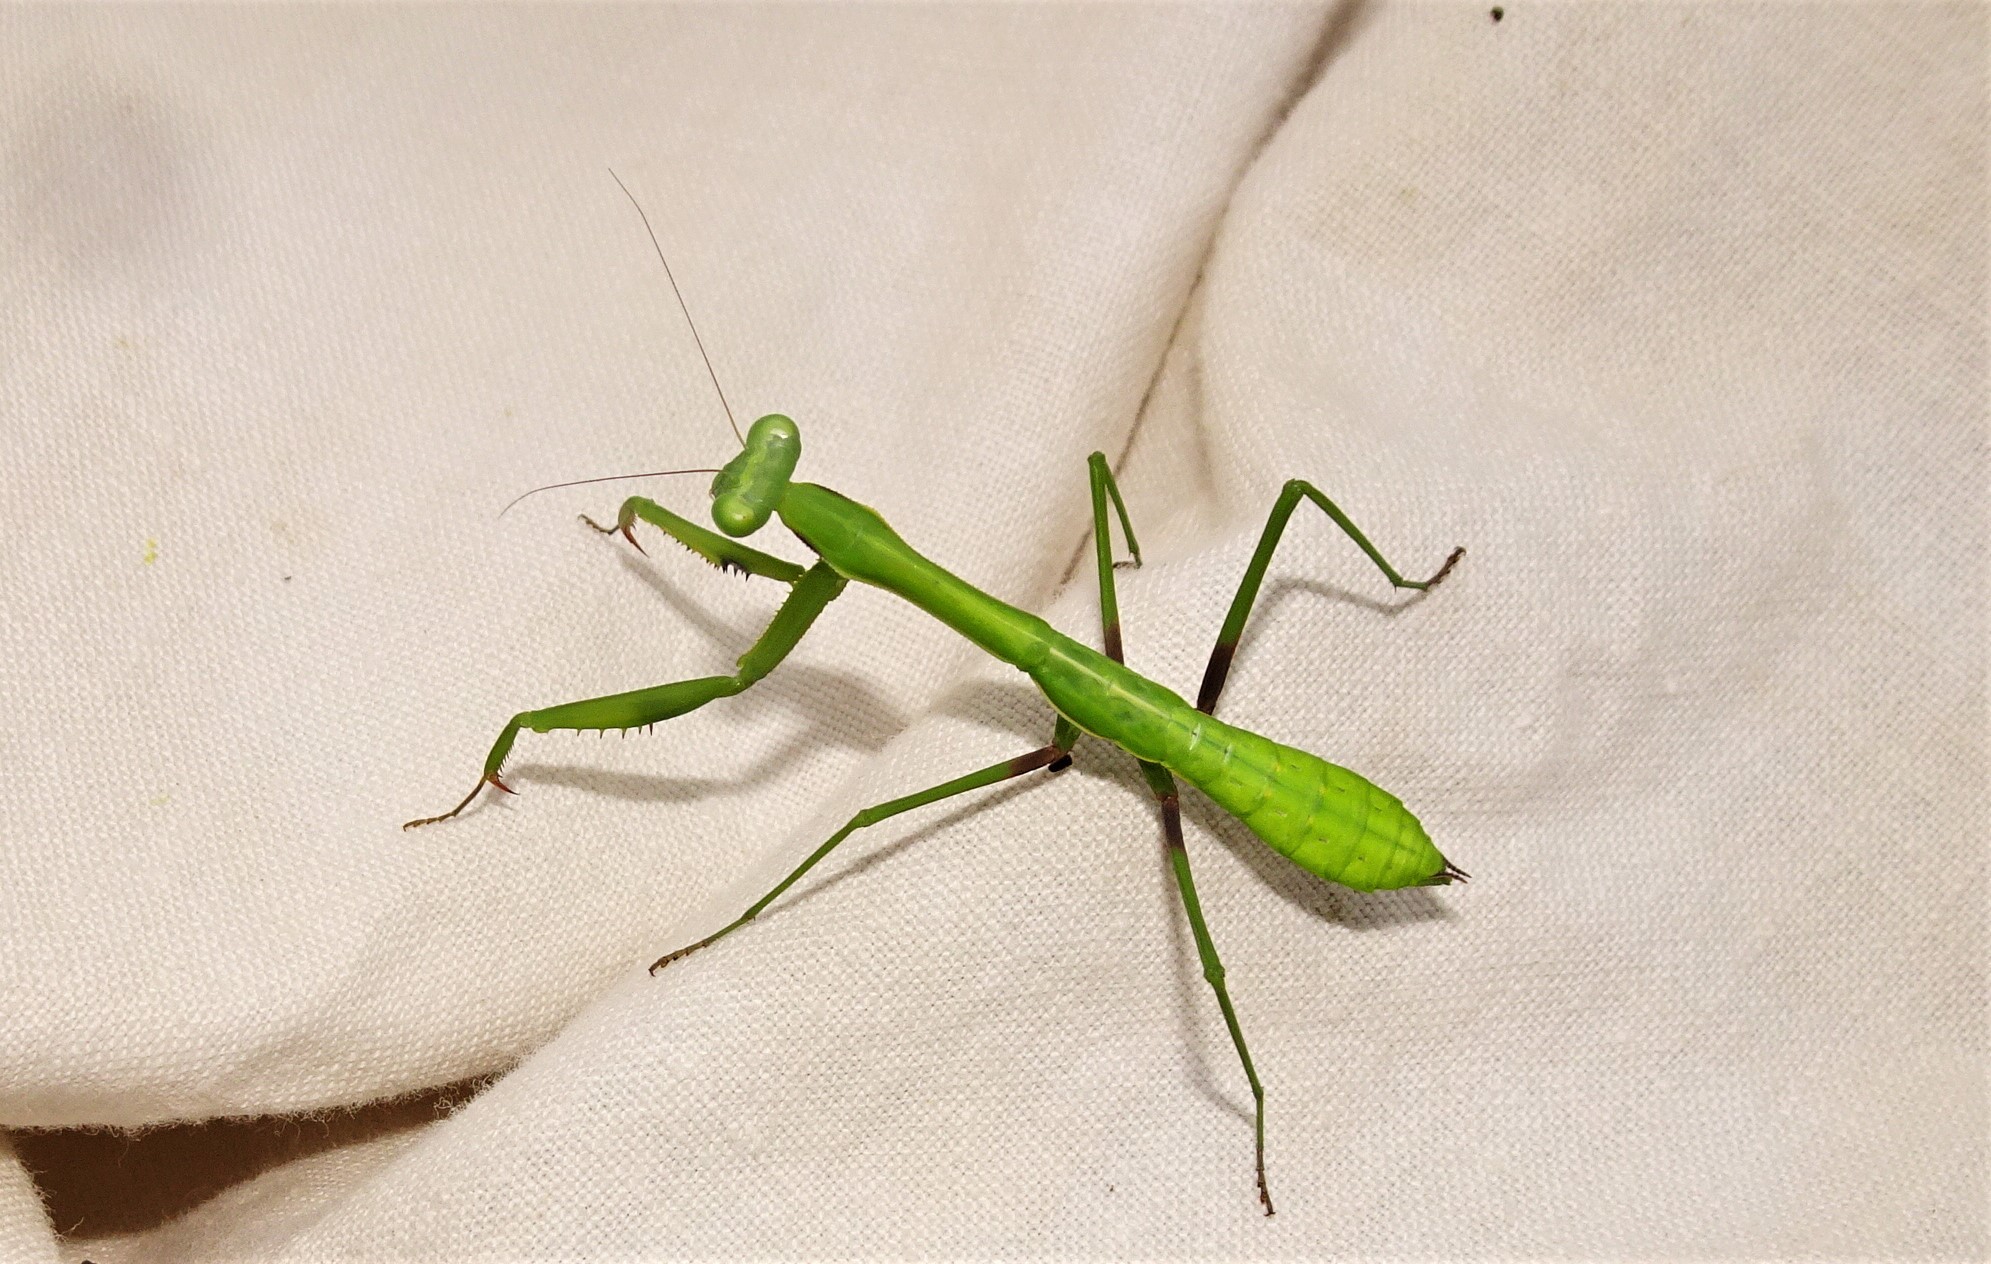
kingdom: Animalia
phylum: Arthropoda
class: Insecta
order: Mantodea
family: Mantidae
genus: Pseudomantis
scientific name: Pseudomantis albofimbriata
